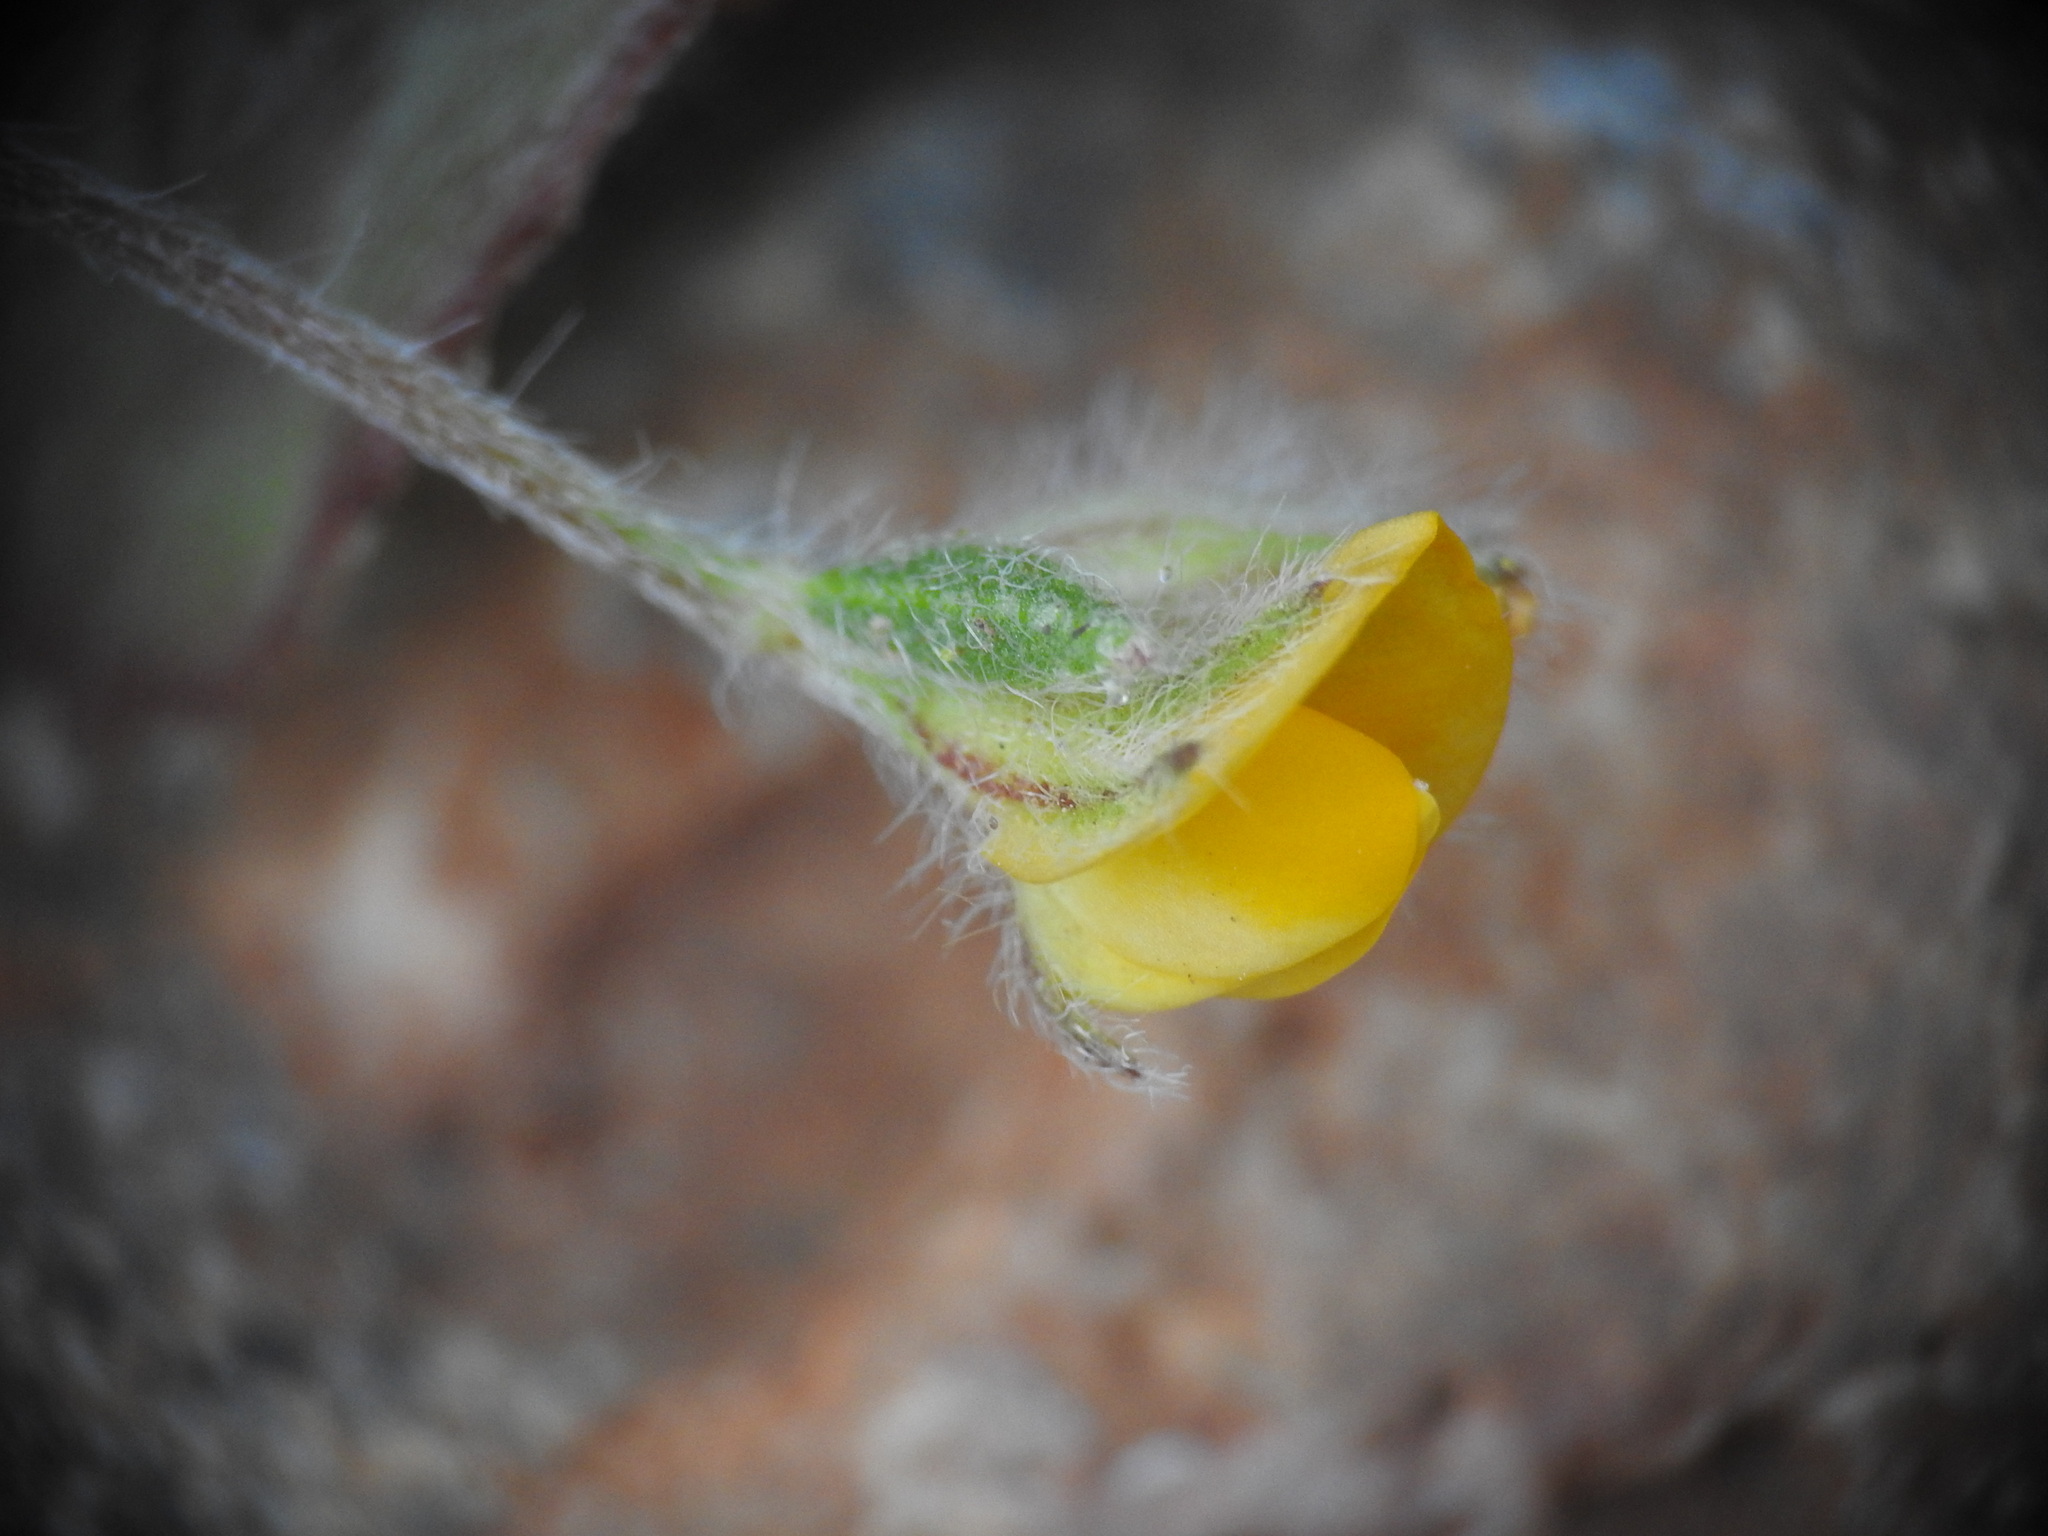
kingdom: Plantae
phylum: Tracheophyta
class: Magnoliopsida
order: Fabales
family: Fabaceae
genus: Anthyllis
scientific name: Anthyllis circinnata
